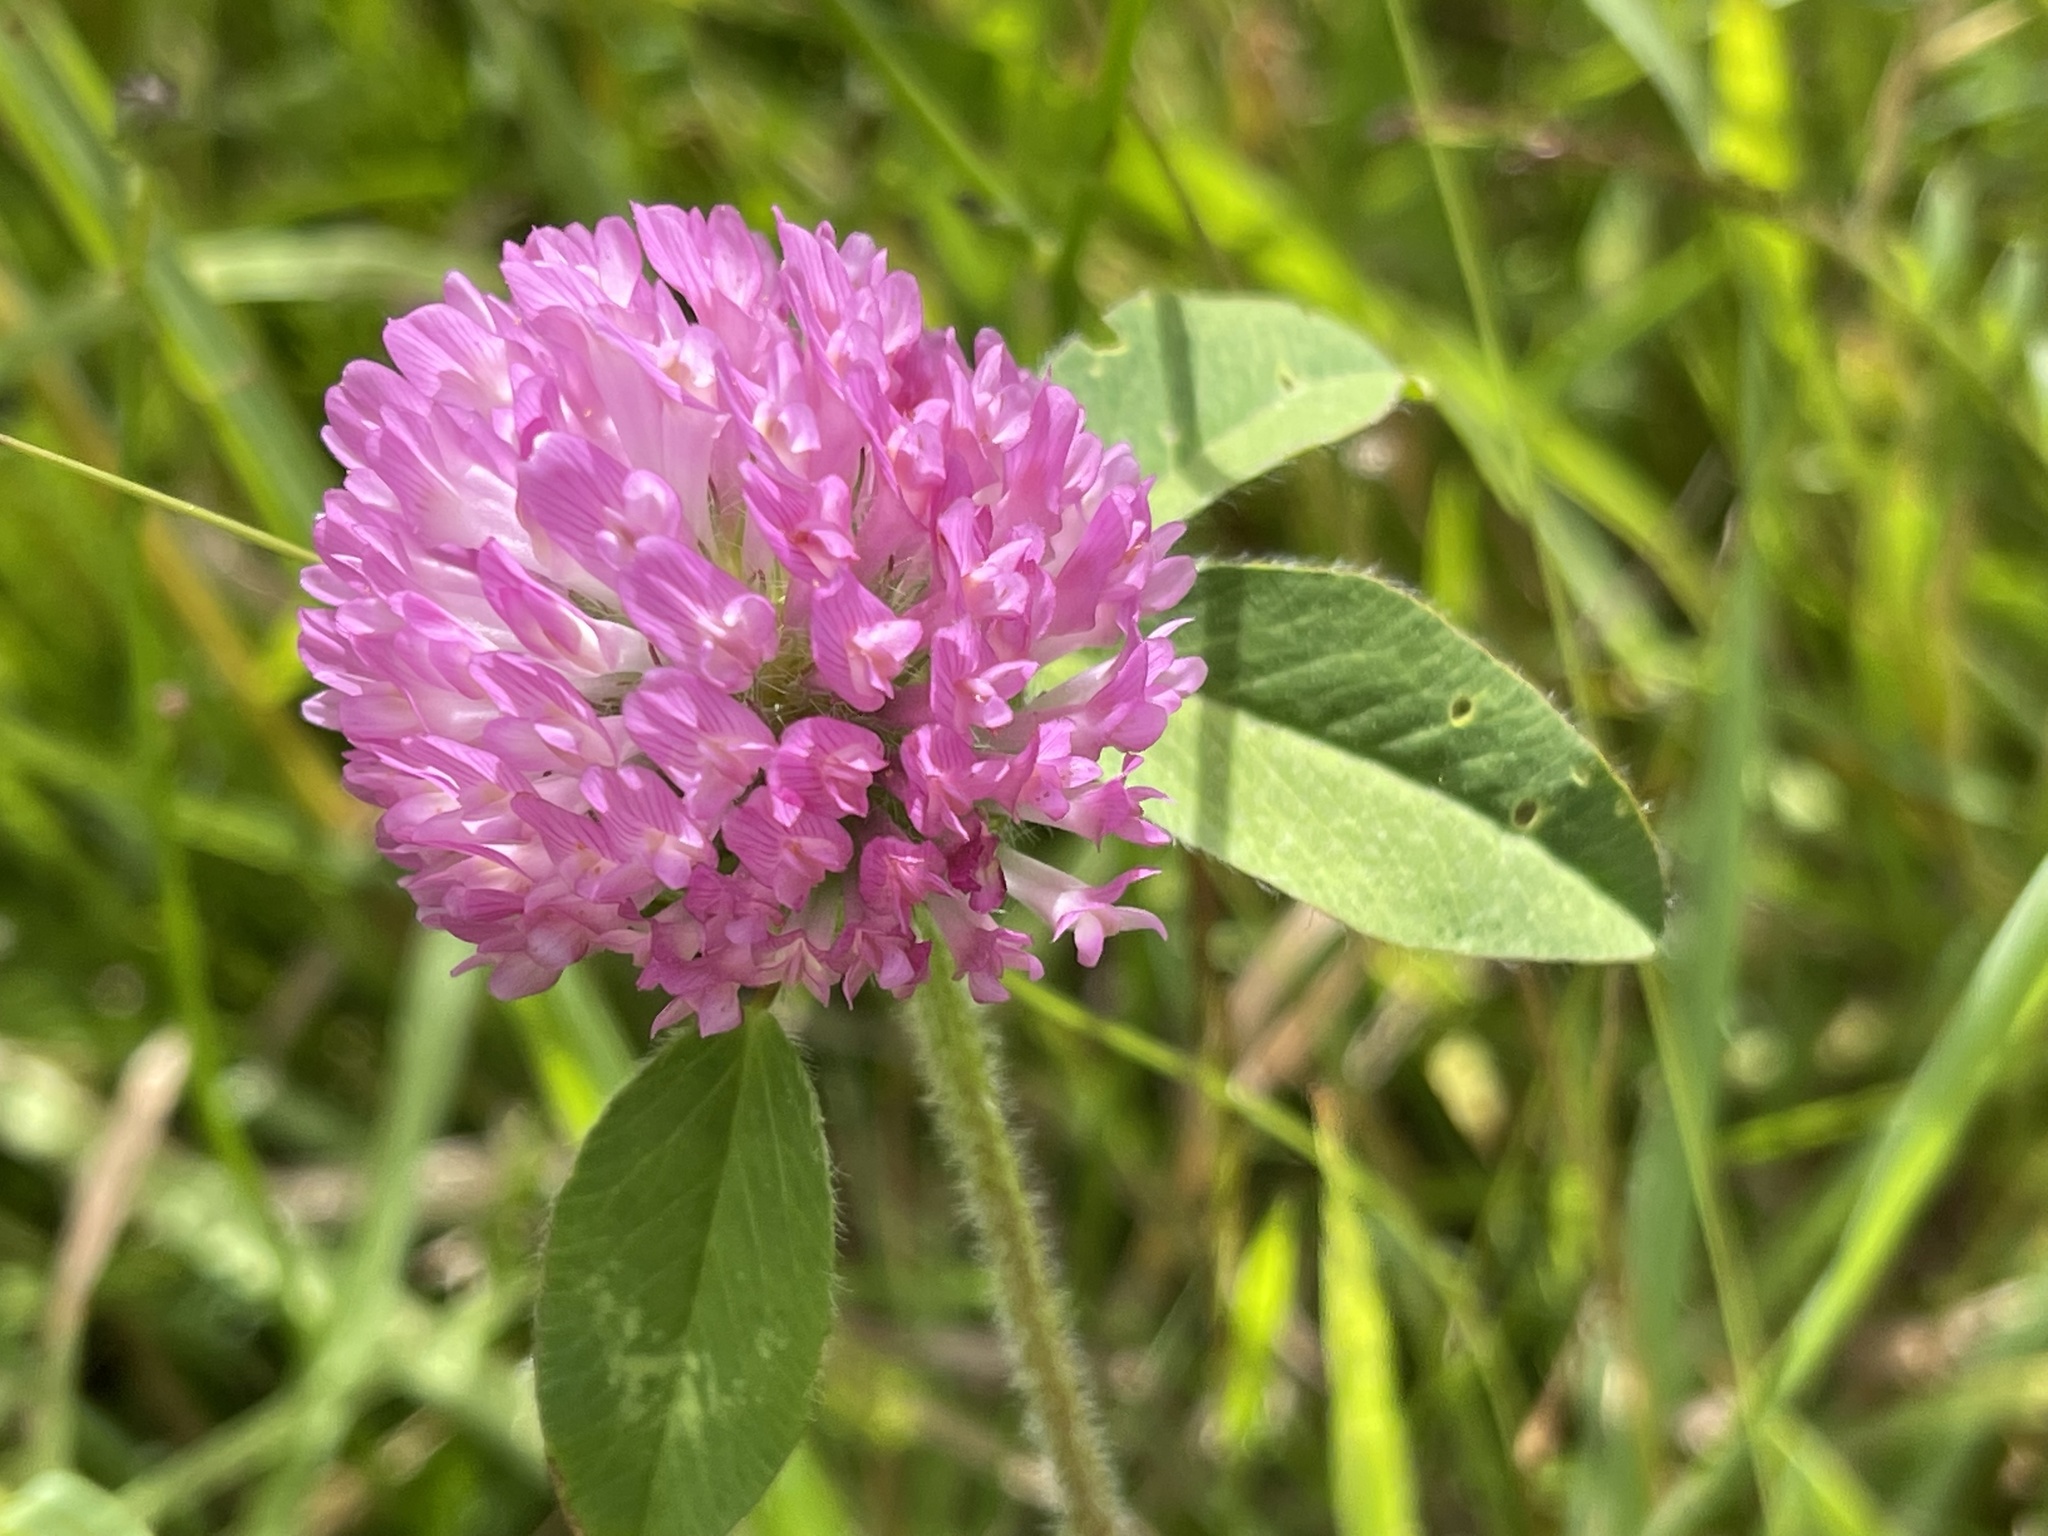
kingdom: Plantae
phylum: Tracheophyta
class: Magnoliopsida
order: Fabales
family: Fabaceae
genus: Trifolium
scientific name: Trifolium pratense
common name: Red clover
